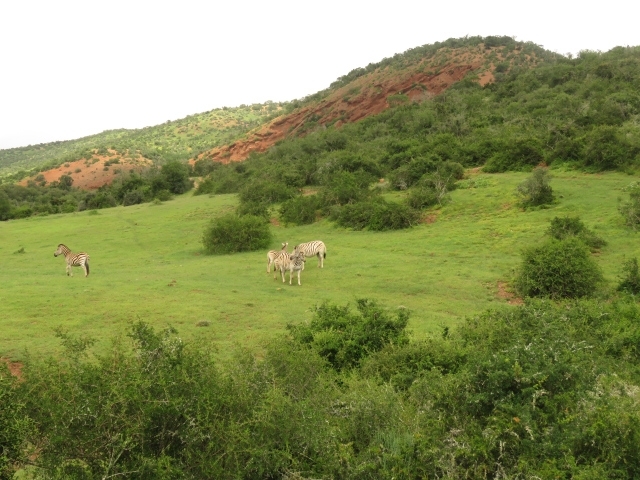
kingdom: Animalia
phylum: Chordata
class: Mammalia
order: Perissodactyla
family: Equidae
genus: Equus
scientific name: Equus quagga
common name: Plains zebra
